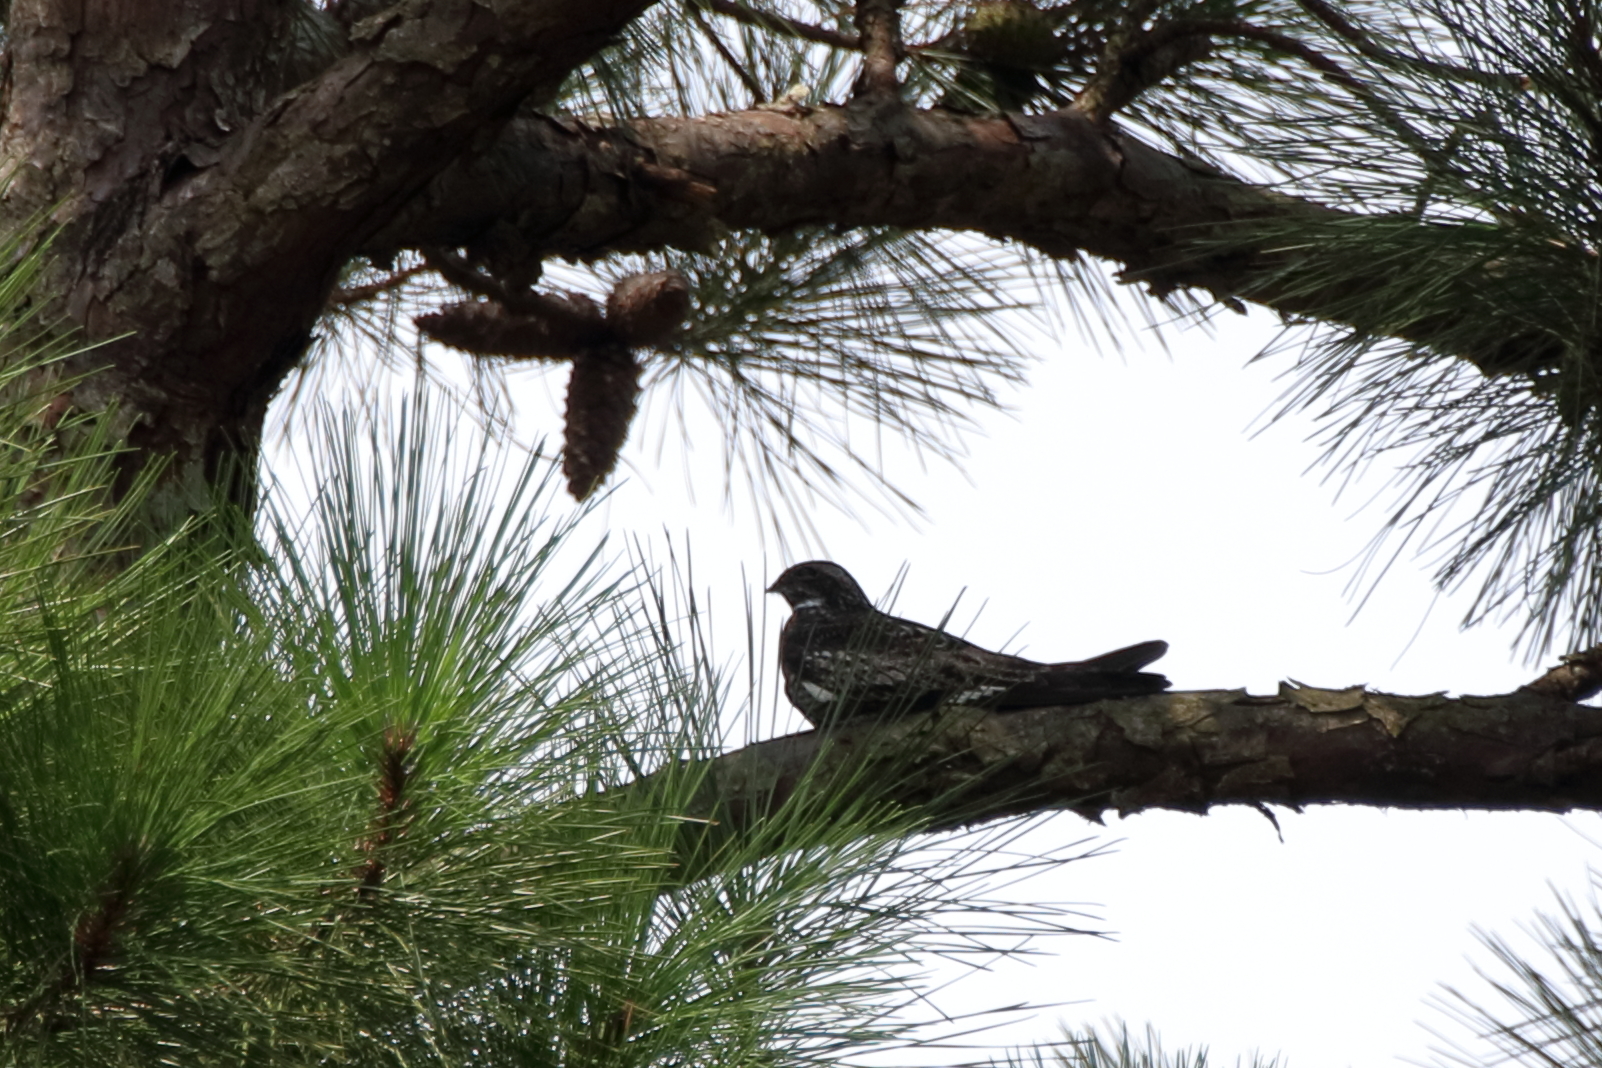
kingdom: Animalia
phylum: Chordata
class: Aves
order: Caprimulgiformes
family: Caprimulgidae
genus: Chordeiles
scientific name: Chordeiles minor
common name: Common nighthawk
